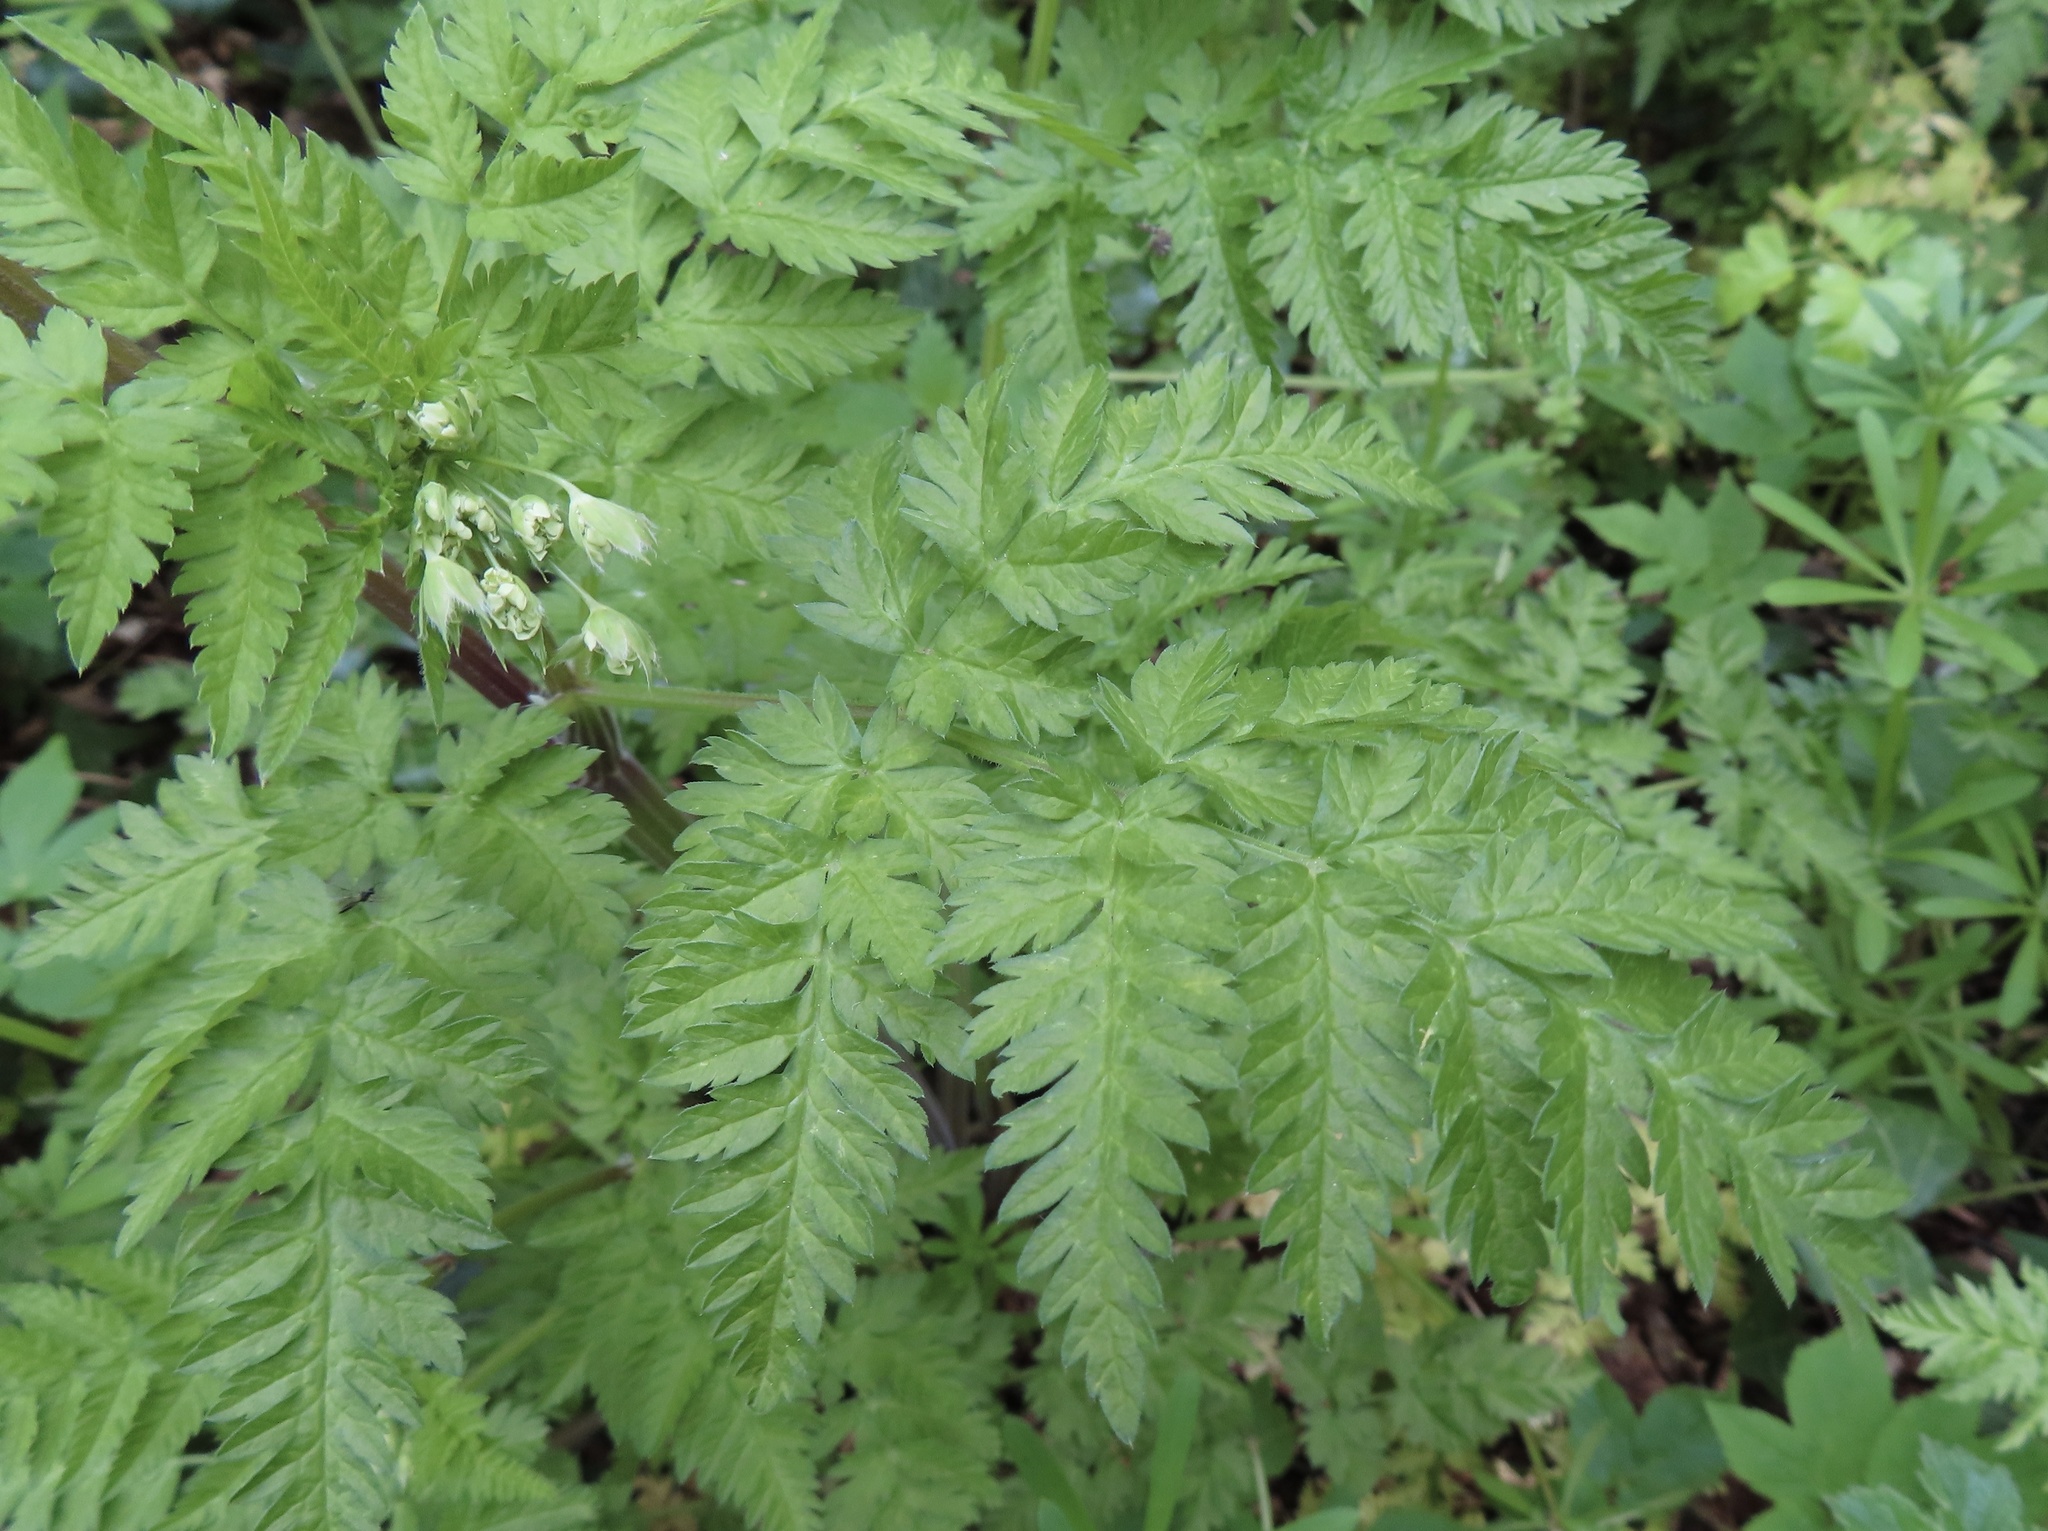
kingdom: Plantae
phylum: Tracheophyta
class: Magnoliopsida
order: Apiales
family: Apiaceae
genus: Anthriscus
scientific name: Anthriscus sylvestris
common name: Cow parsley
